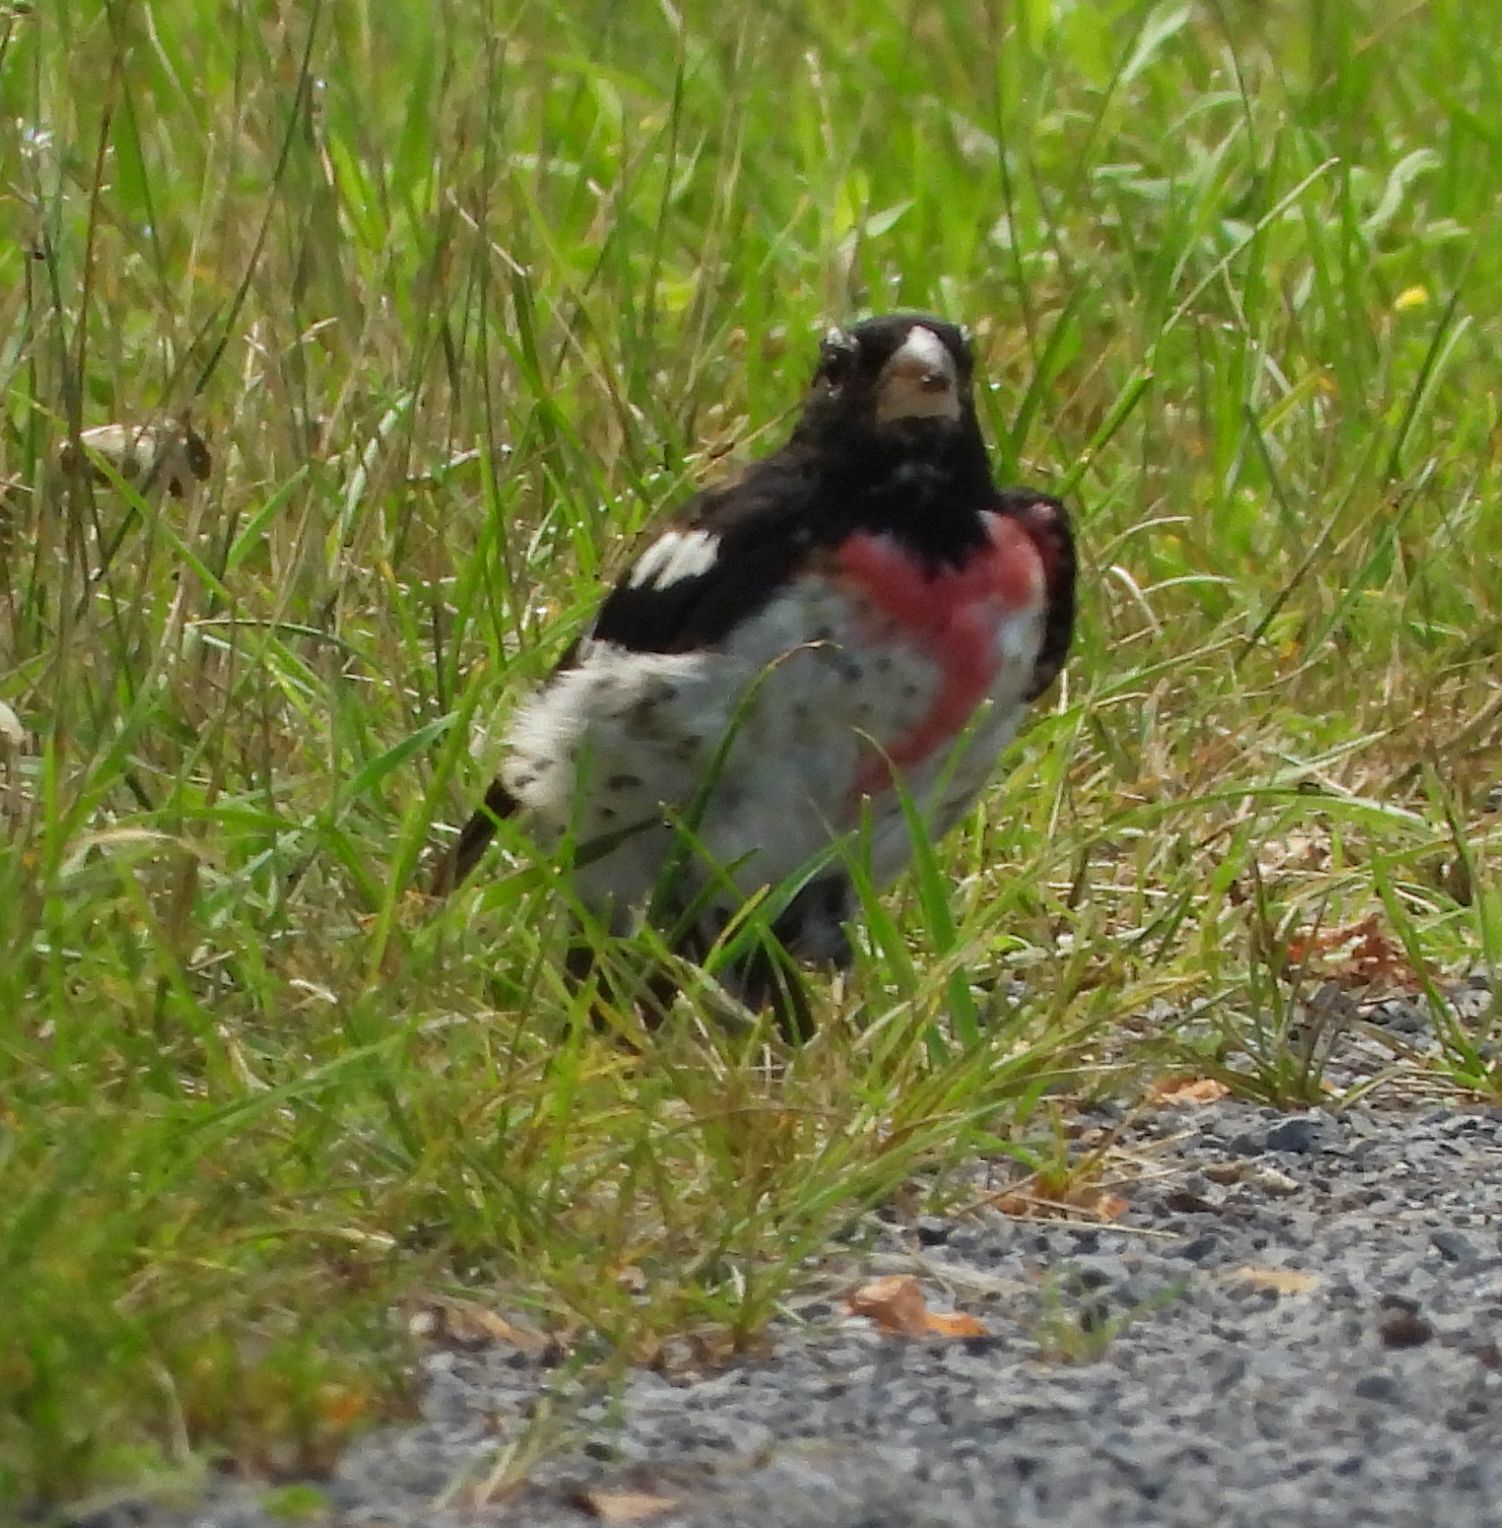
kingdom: Animalia
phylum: Chordata
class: Aves
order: Passeriformes
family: Cardinalidae
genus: Pheucticus
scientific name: Pheucticus ludovicianus
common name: Rose-breasted grosbeak
